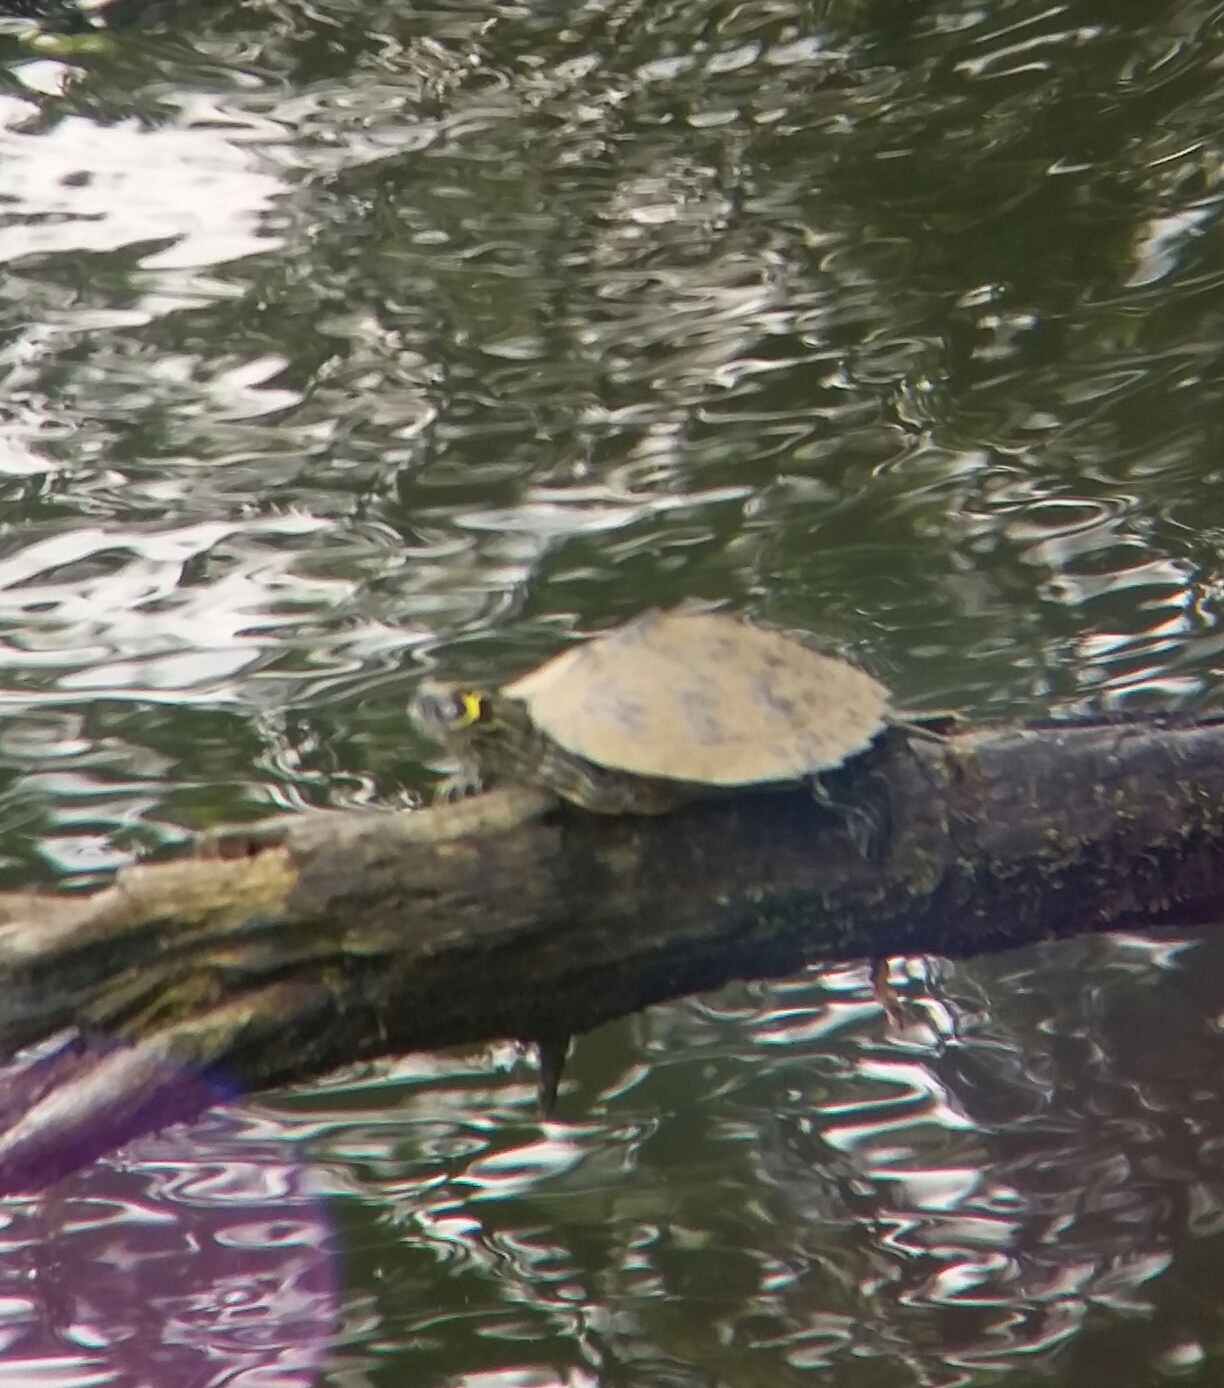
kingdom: Animalia
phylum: Chordata
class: Testudines
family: Emydidae
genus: Graptemys
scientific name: Graptemys pseudogeographica
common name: False map turtle
